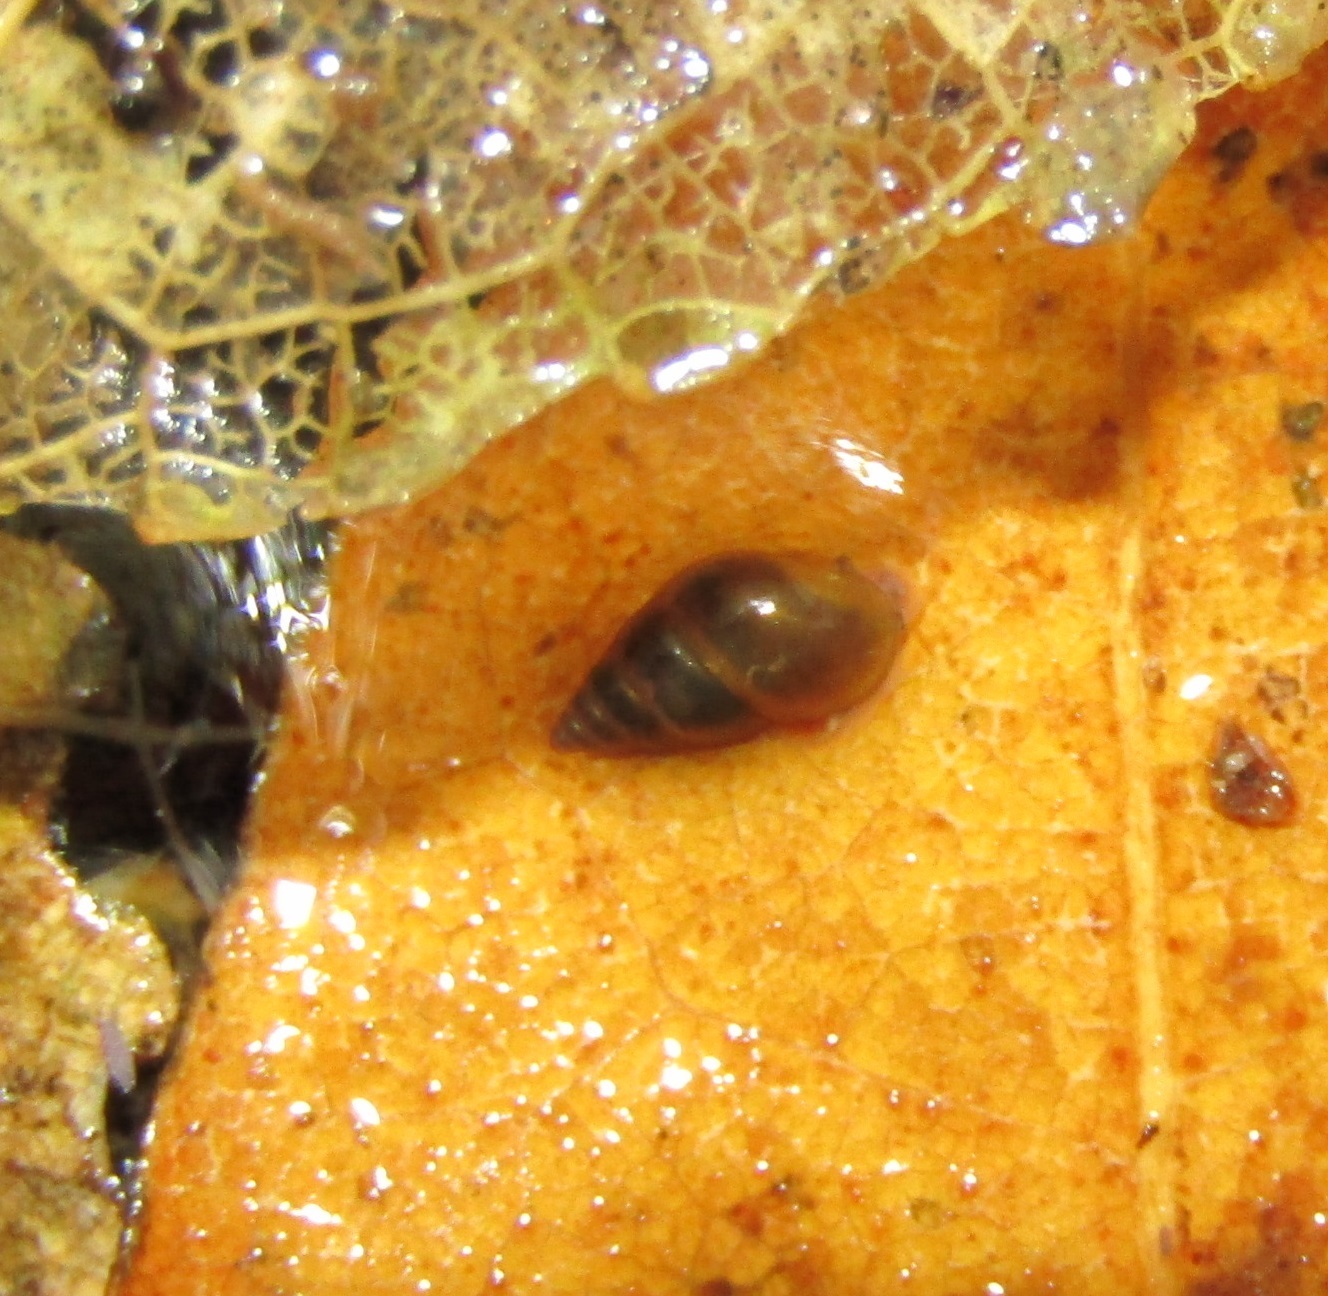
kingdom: Animalia
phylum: Mollusca
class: Gastropoda
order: Littorinimorpha
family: Tateidae
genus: Potamopyrgus
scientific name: Potamopyrgus antipodarum
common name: Jenkins' spire snail
